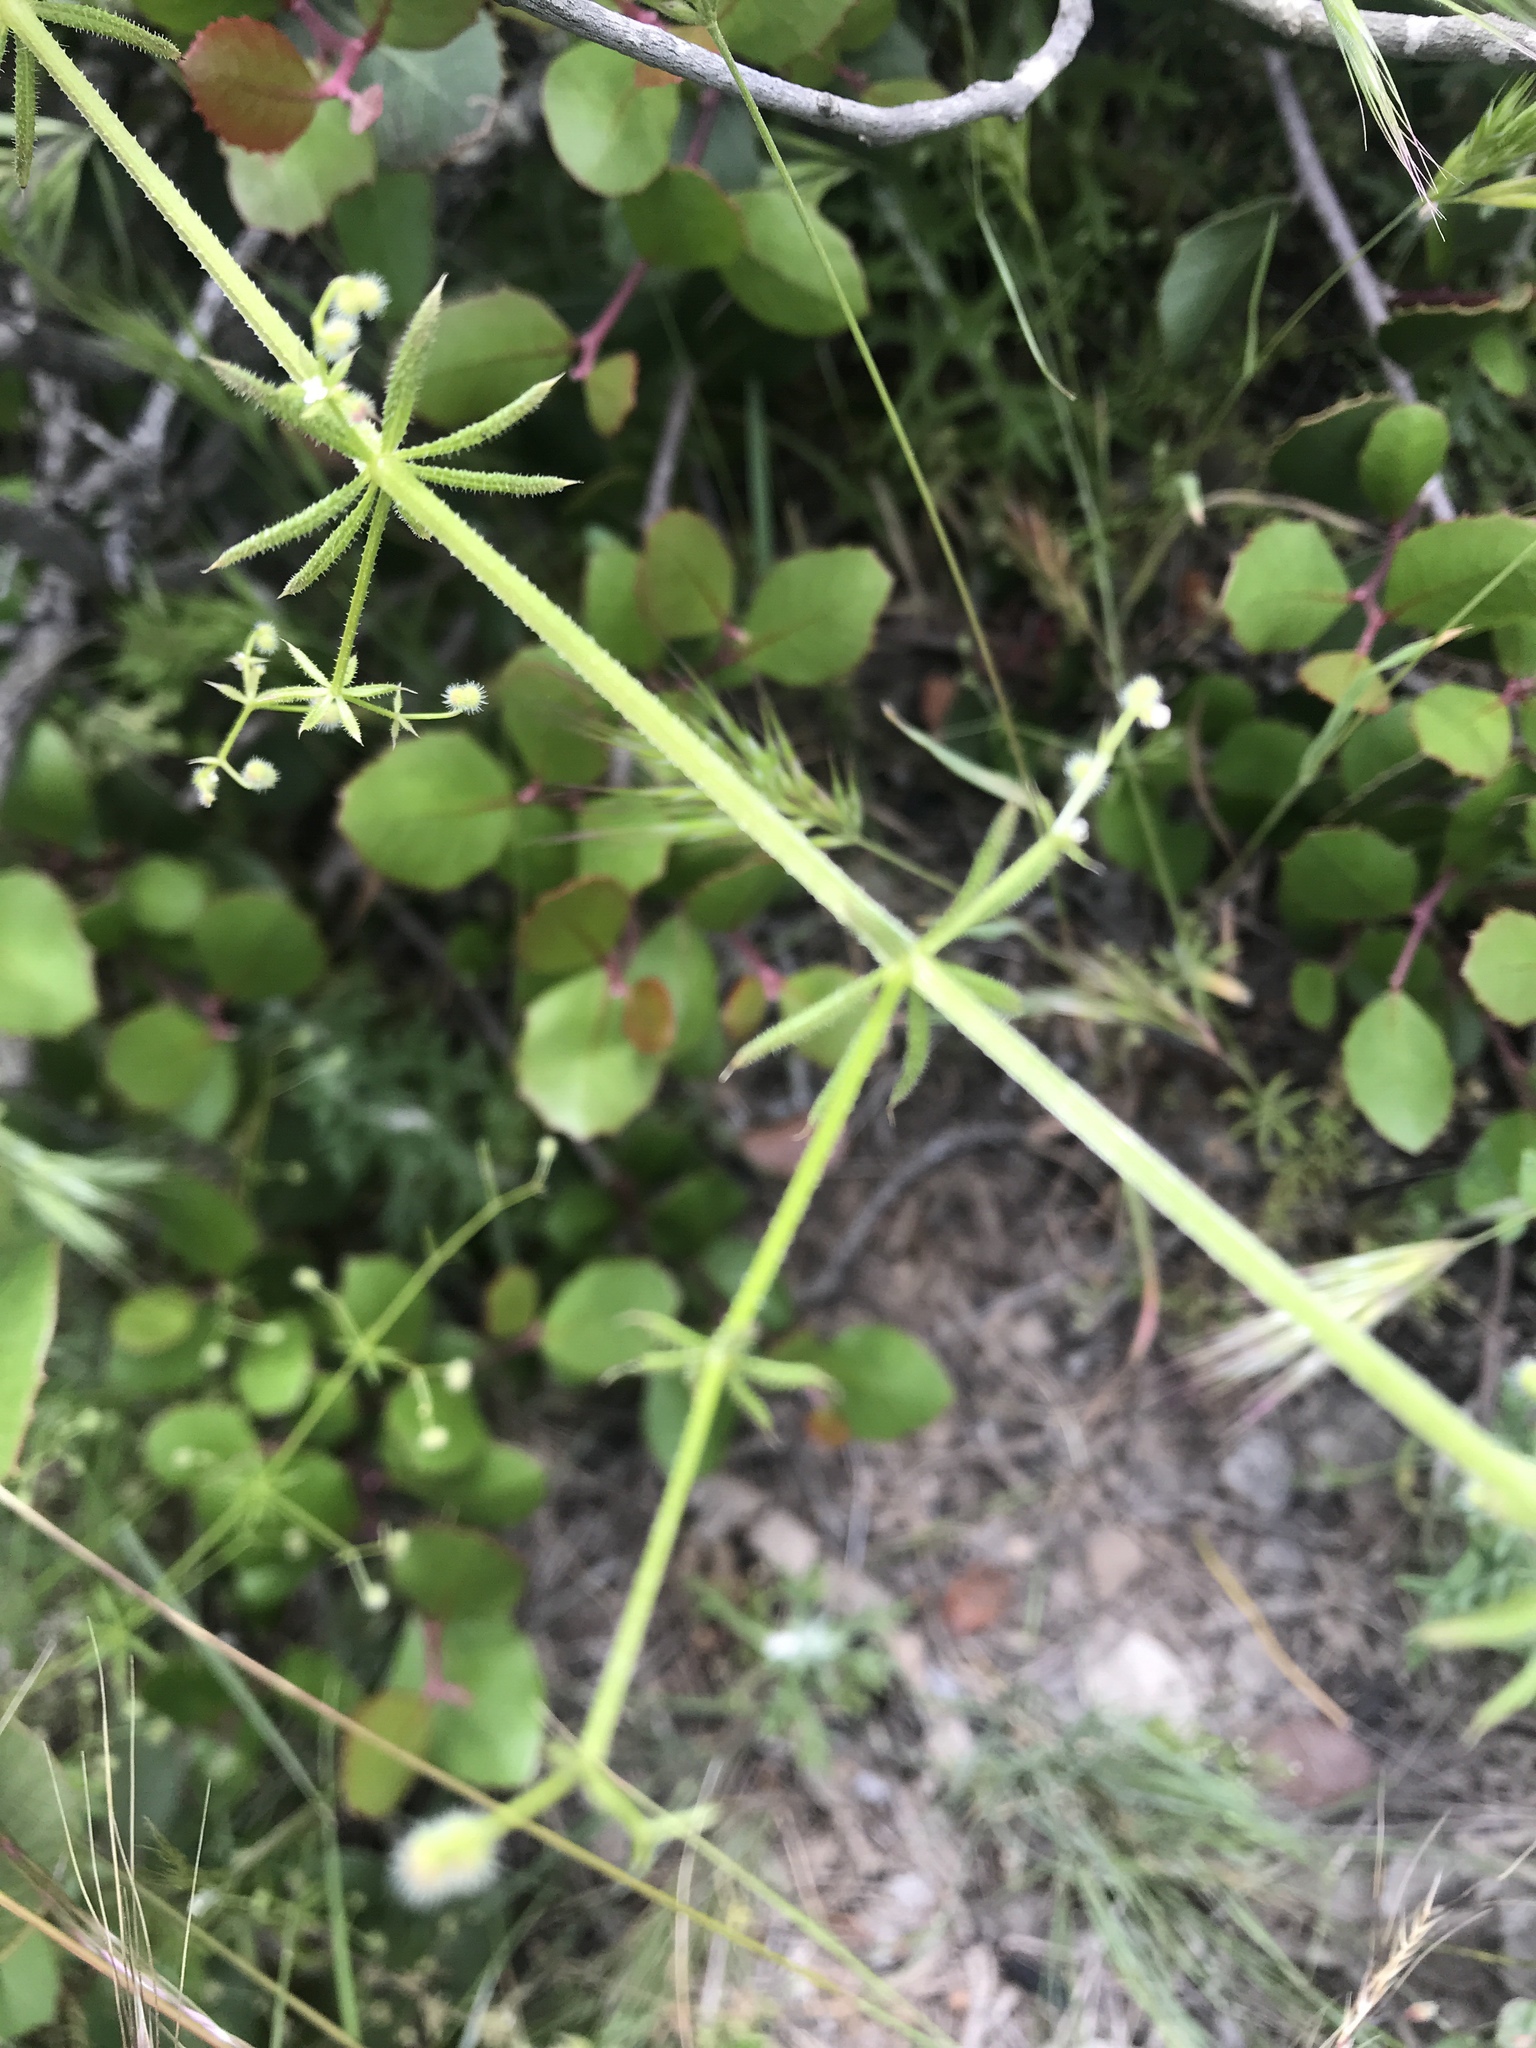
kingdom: Plantae
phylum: Tracheophyta
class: Magnoliopsida
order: Gentianales
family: Rubiaceae
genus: Galium
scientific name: Galium aparine
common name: Cleavers
